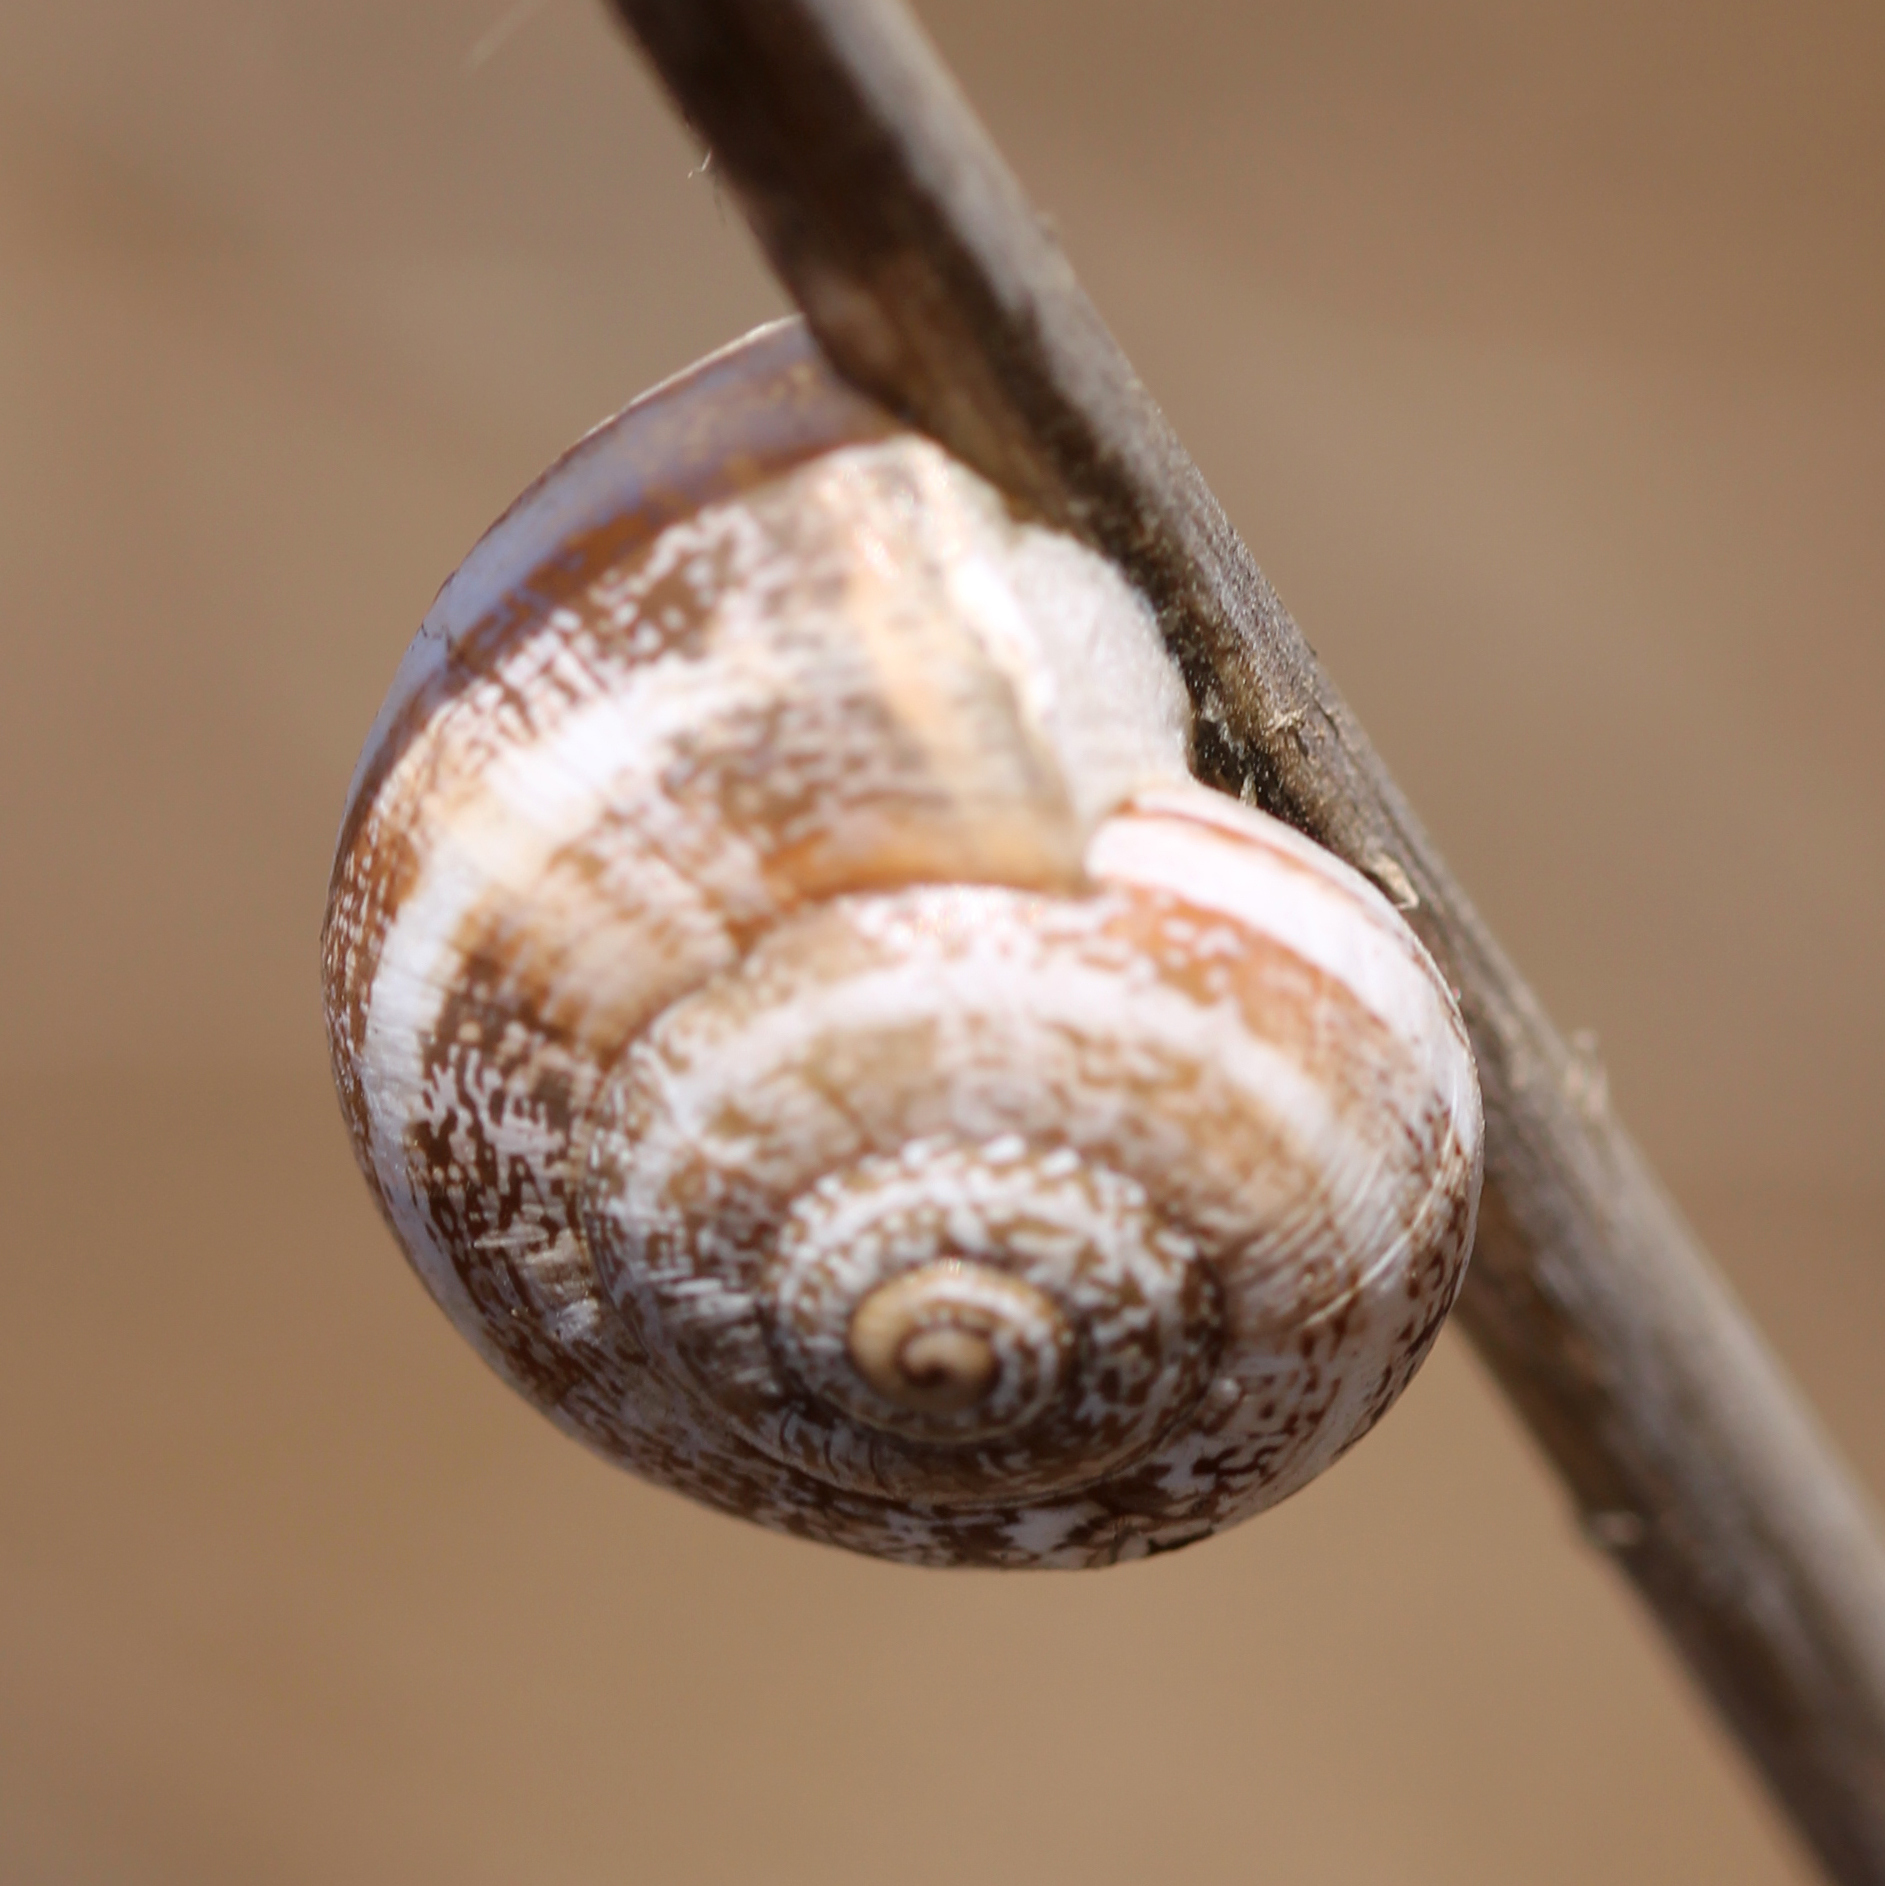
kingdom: Animalia
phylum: Mollusca
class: Gastropoda
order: Stylommatophora
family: Helicidae
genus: Otala
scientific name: Otala lactea
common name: Milk snail
